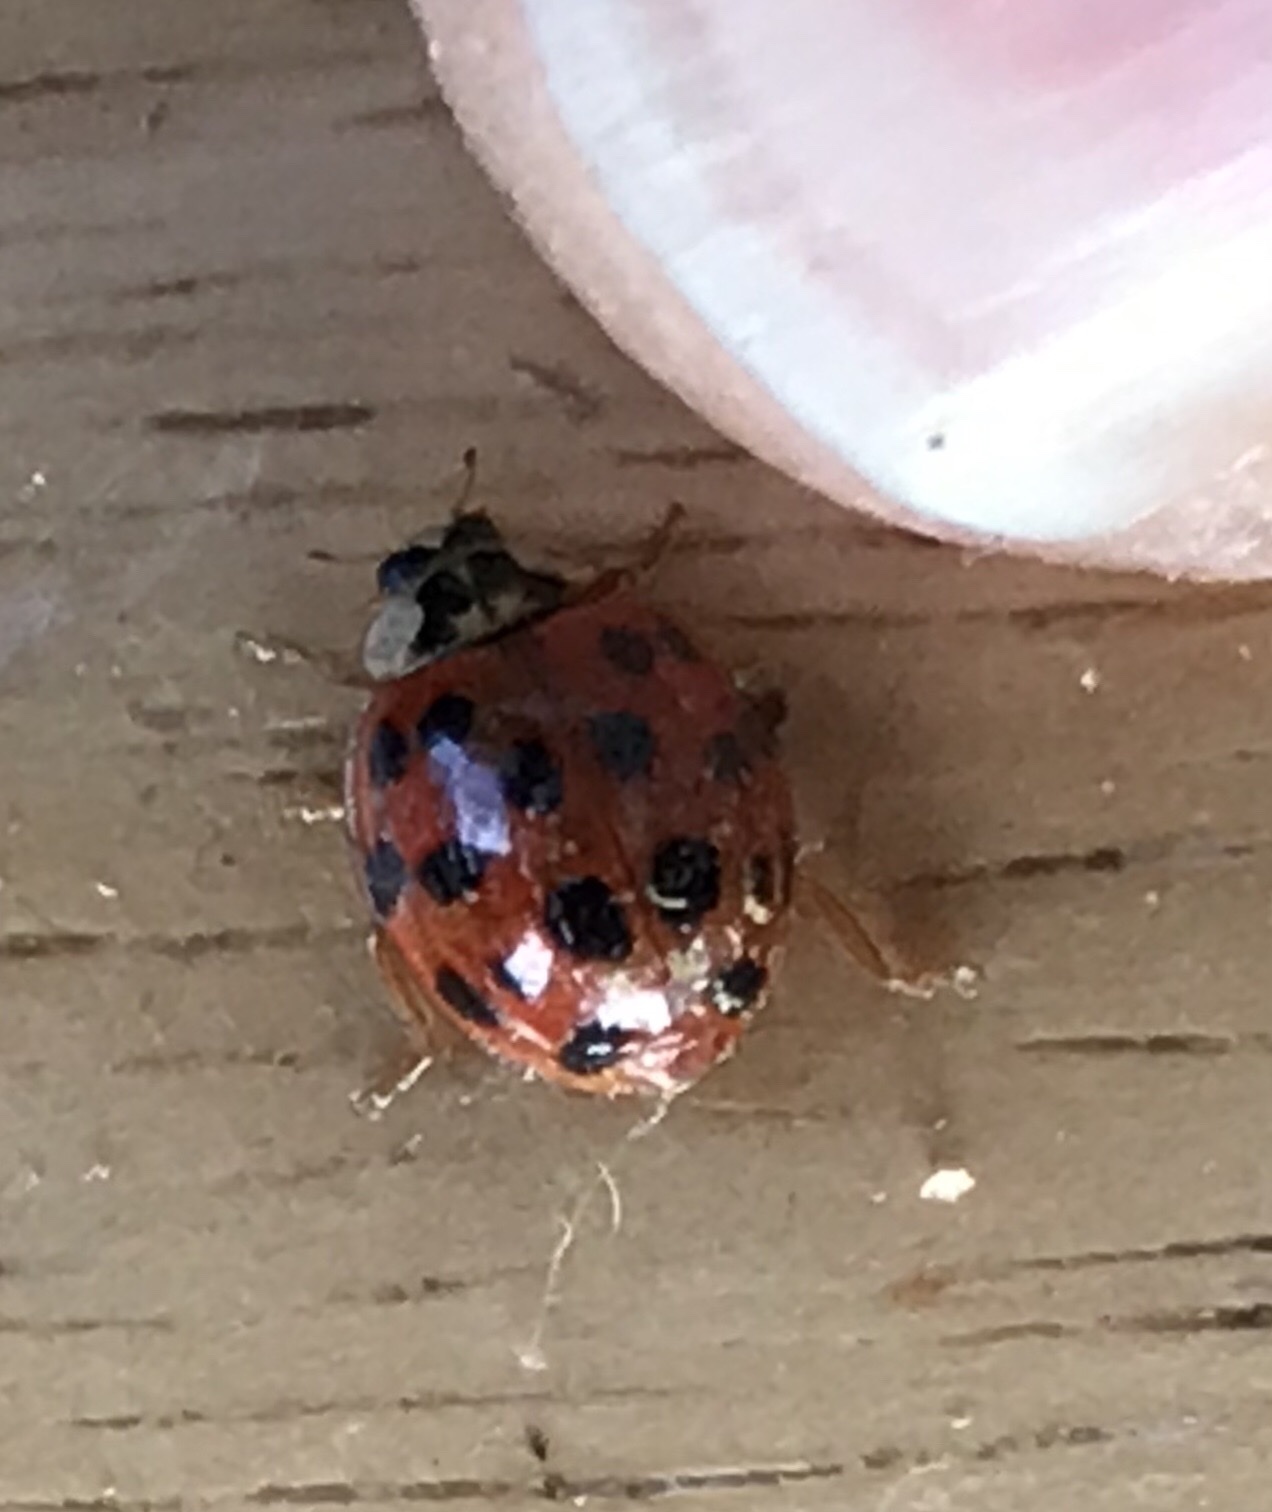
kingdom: Animalia
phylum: Arthropoda
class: Insecta
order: Coleoptera
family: Coccinellidae
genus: Harmonia
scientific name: Harmonia axyridis
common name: Harlequin ladybird
